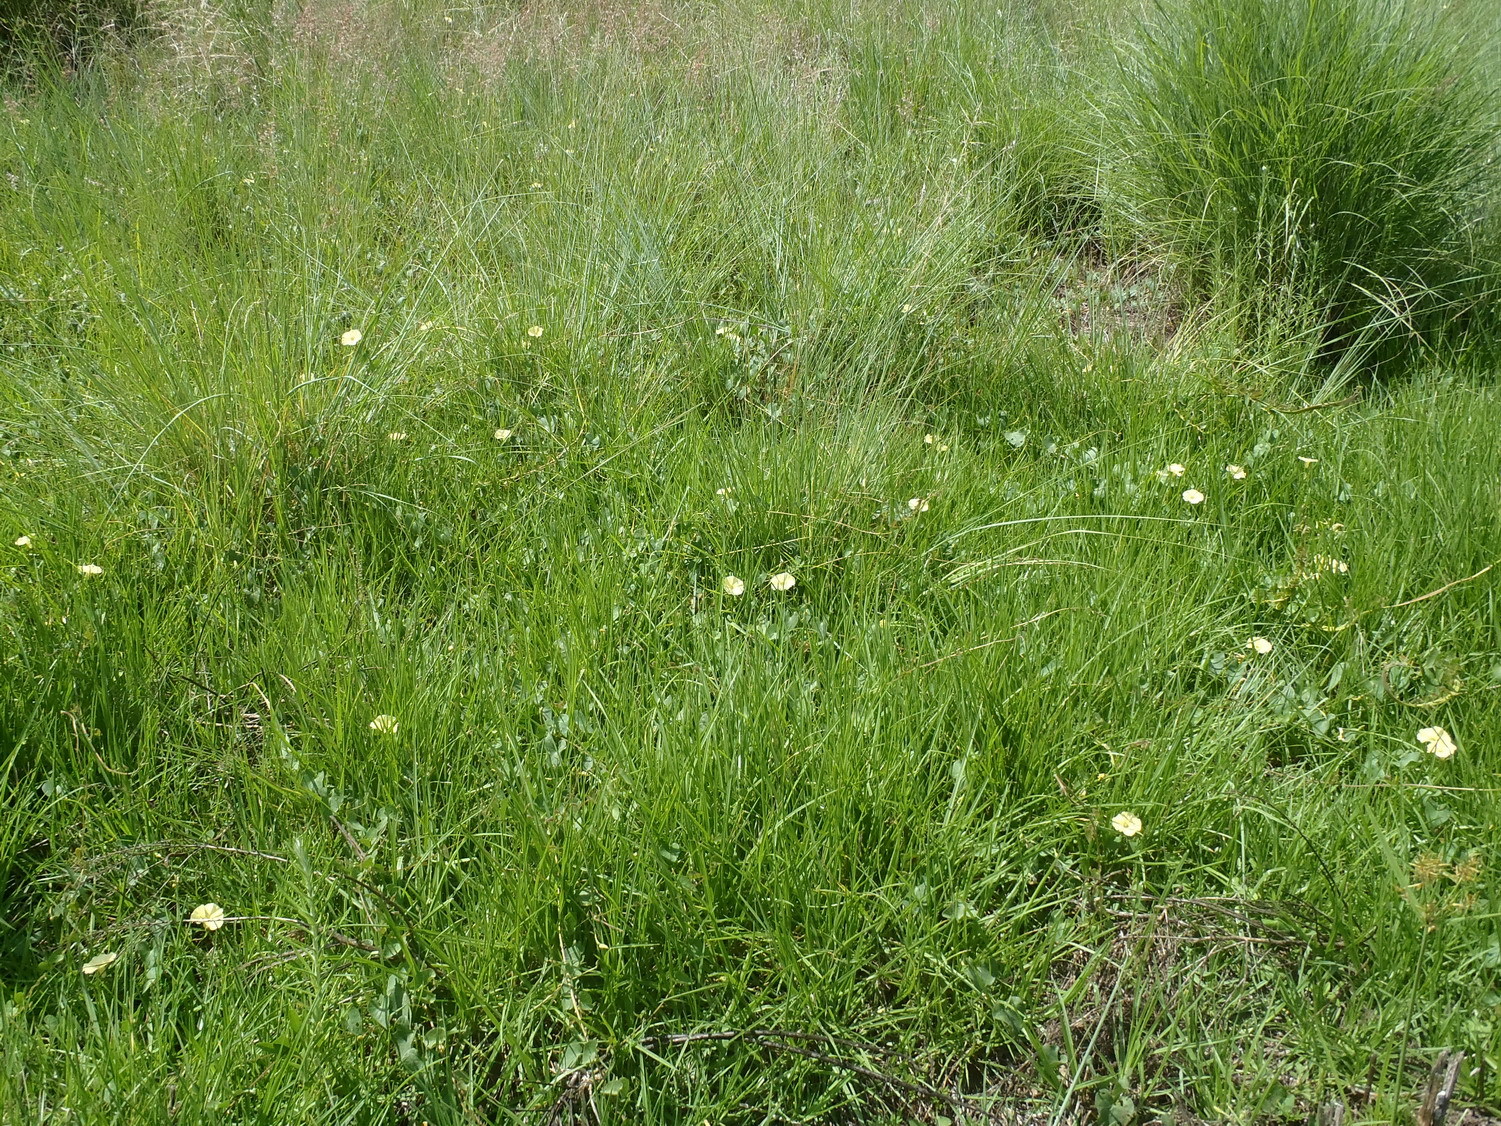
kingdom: Plantae
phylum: Tracheophyta
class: Magnoliopsida
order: Solanales
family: Convolvulaceae
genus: Ipomoea
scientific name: Ipomoea obscura
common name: Obscure morning-glory
